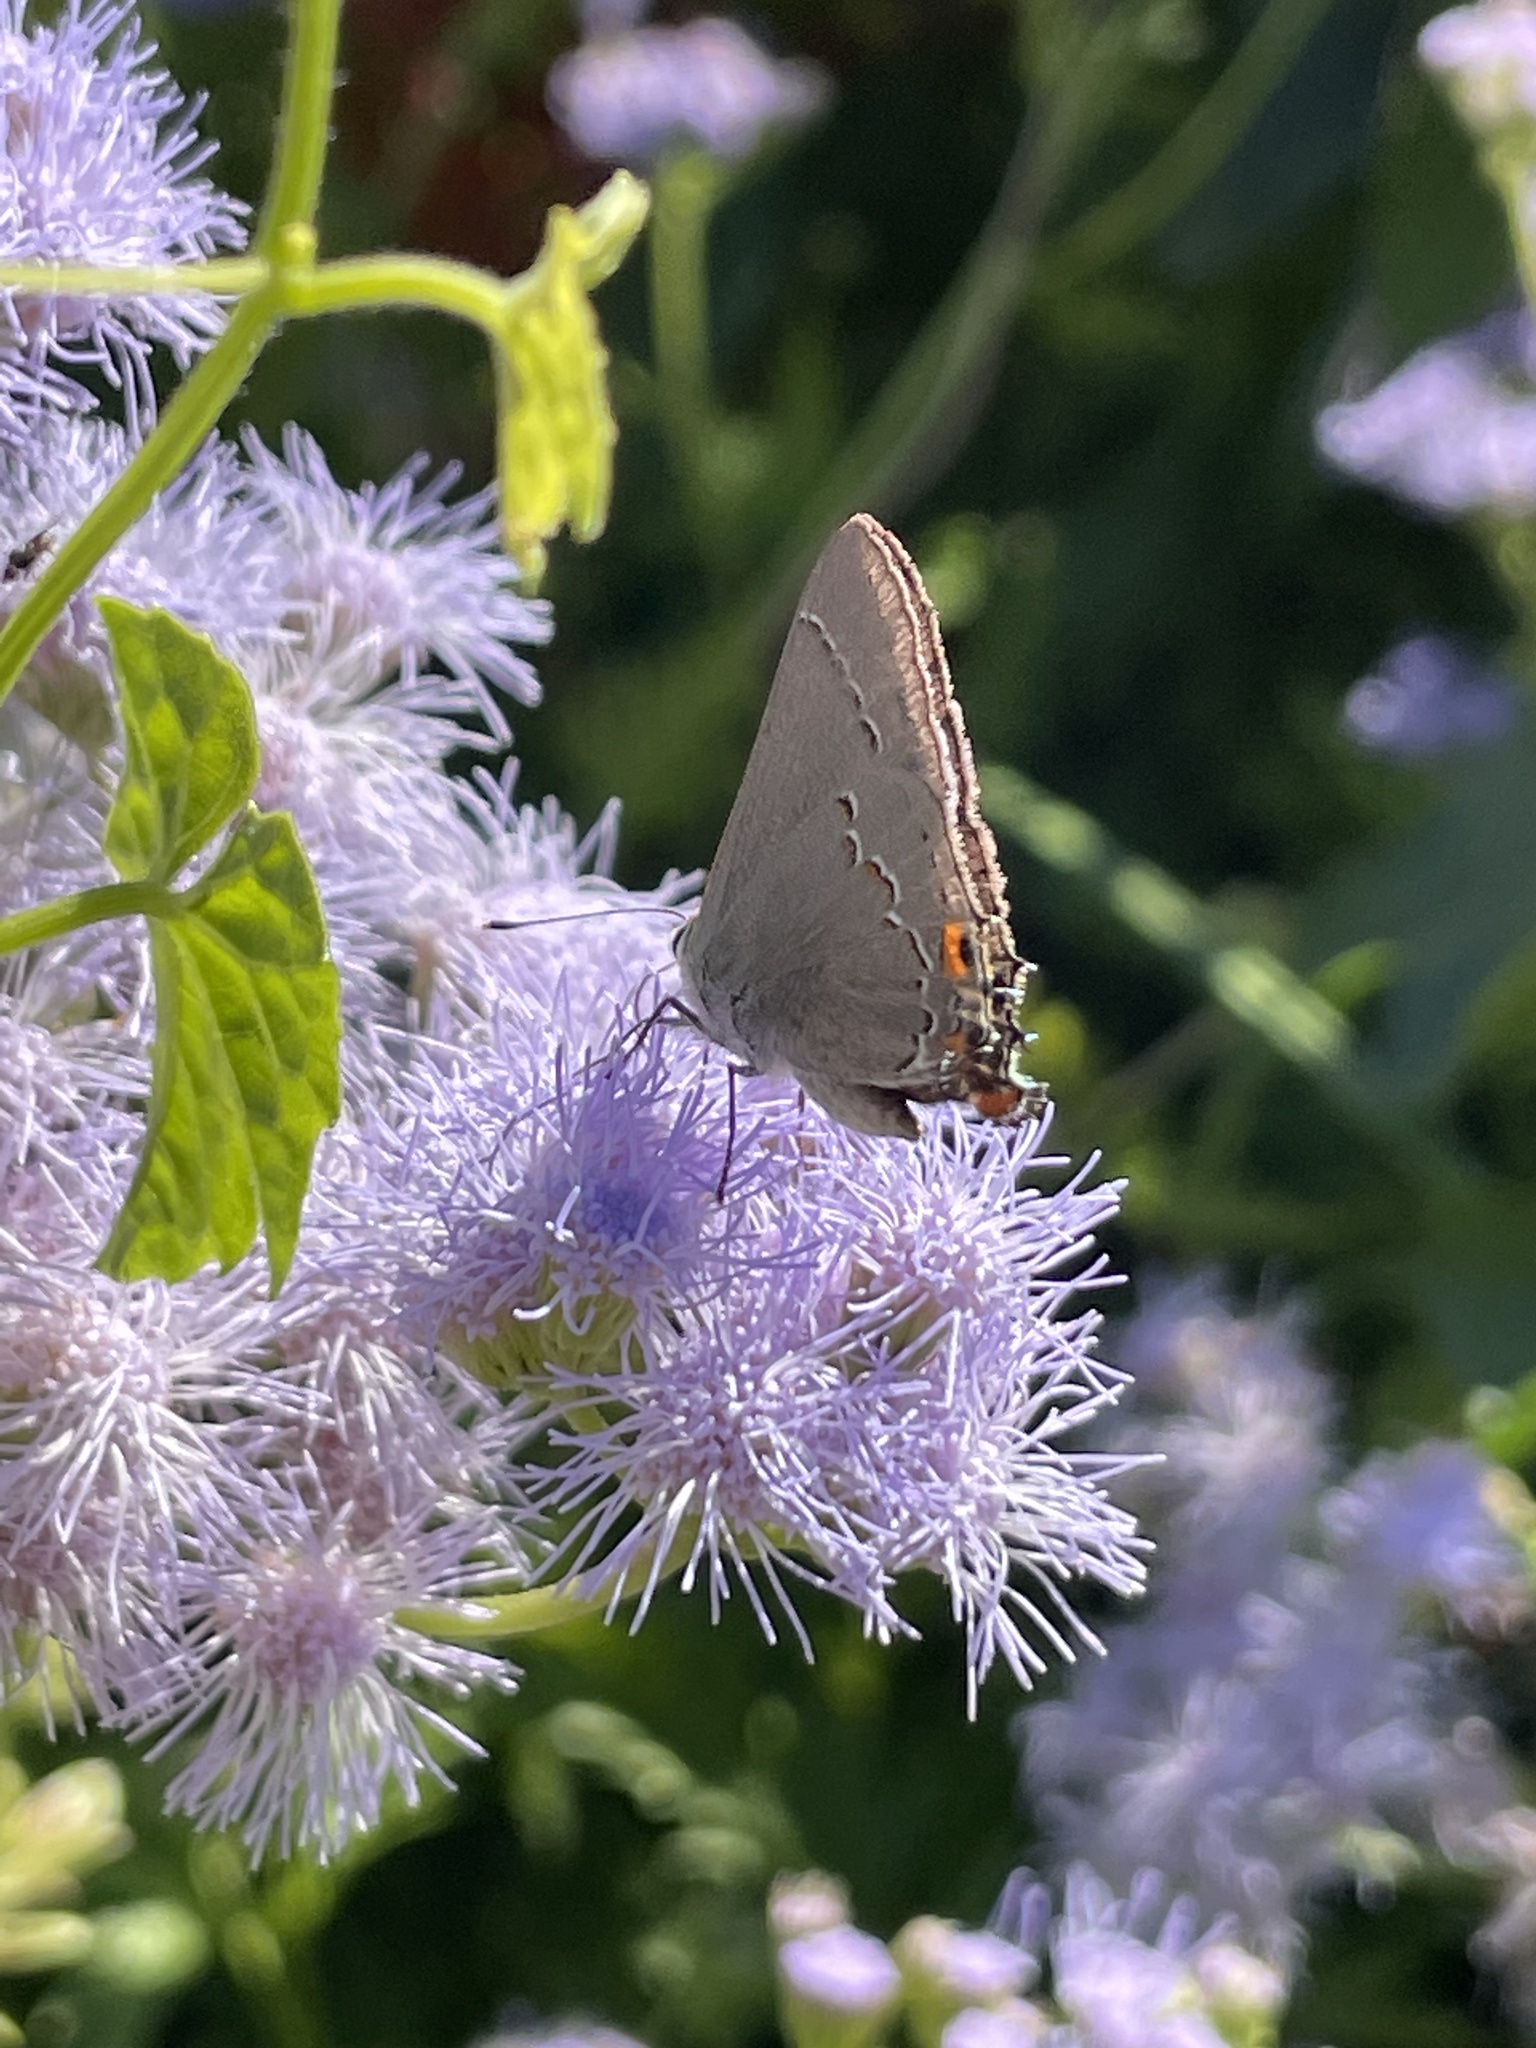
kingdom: Animalia
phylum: Arthropoda
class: Insecta
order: Lepidoptera
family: Lycaenidae
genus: Strymon
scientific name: Strymon melinus
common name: Gray hairstreak
